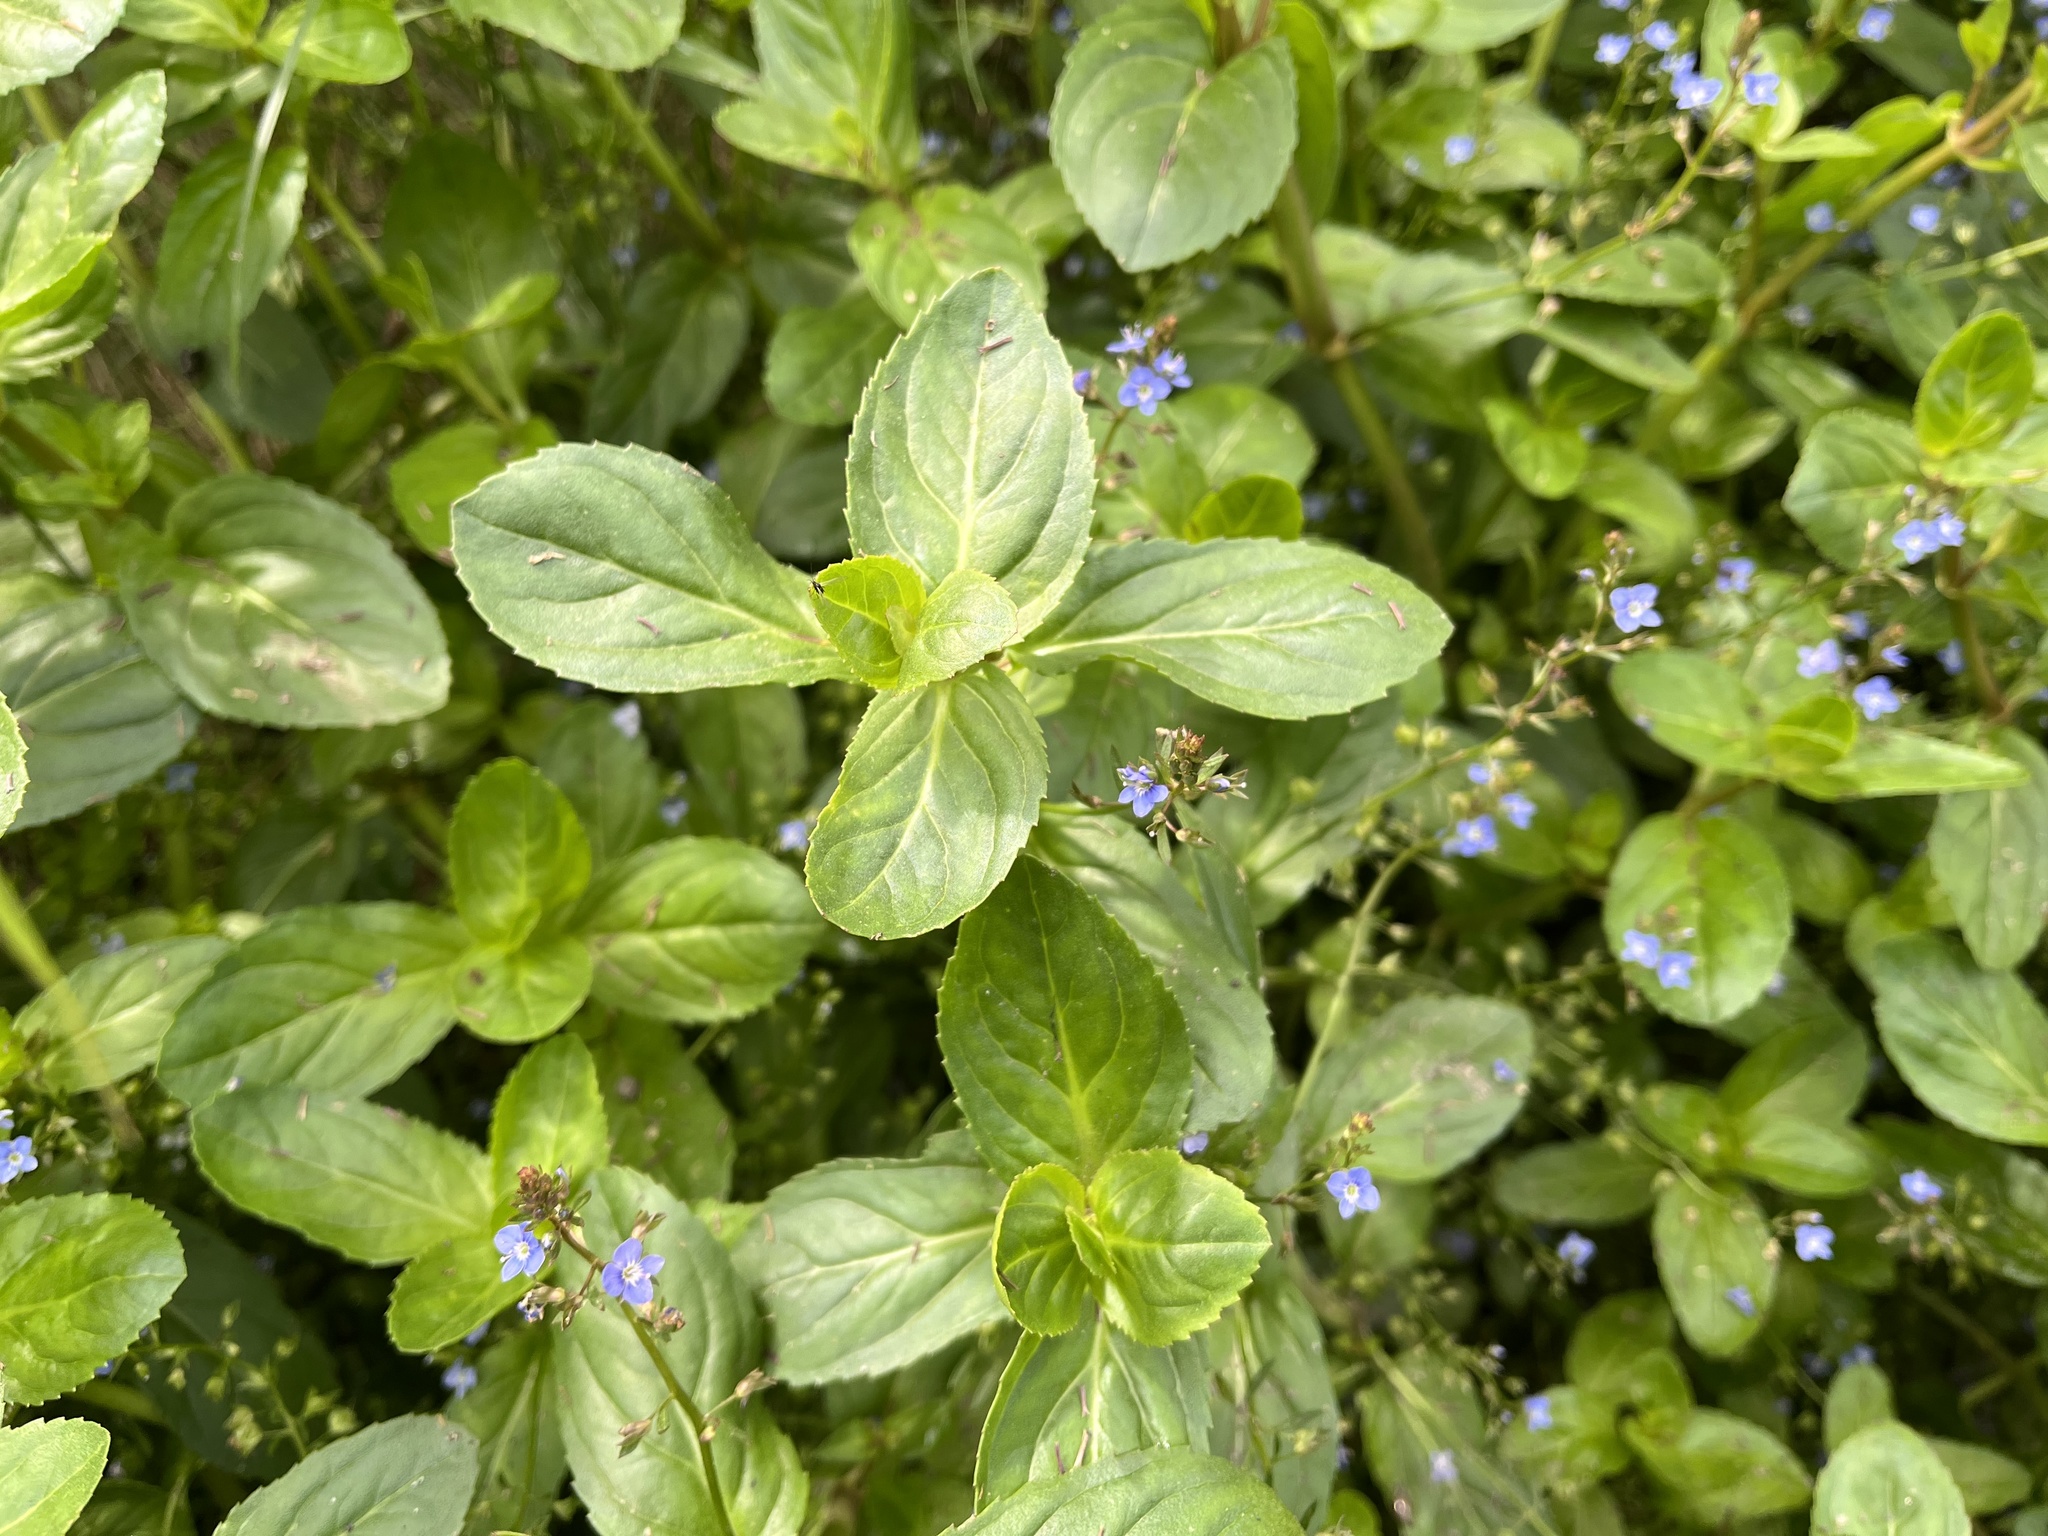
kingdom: Plantae
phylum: Tracheophyta
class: Magnoliopsida
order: Lamiales
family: Plantaginaceae
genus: Veronica
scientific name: Veronica beccabunga
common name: Brooklime
